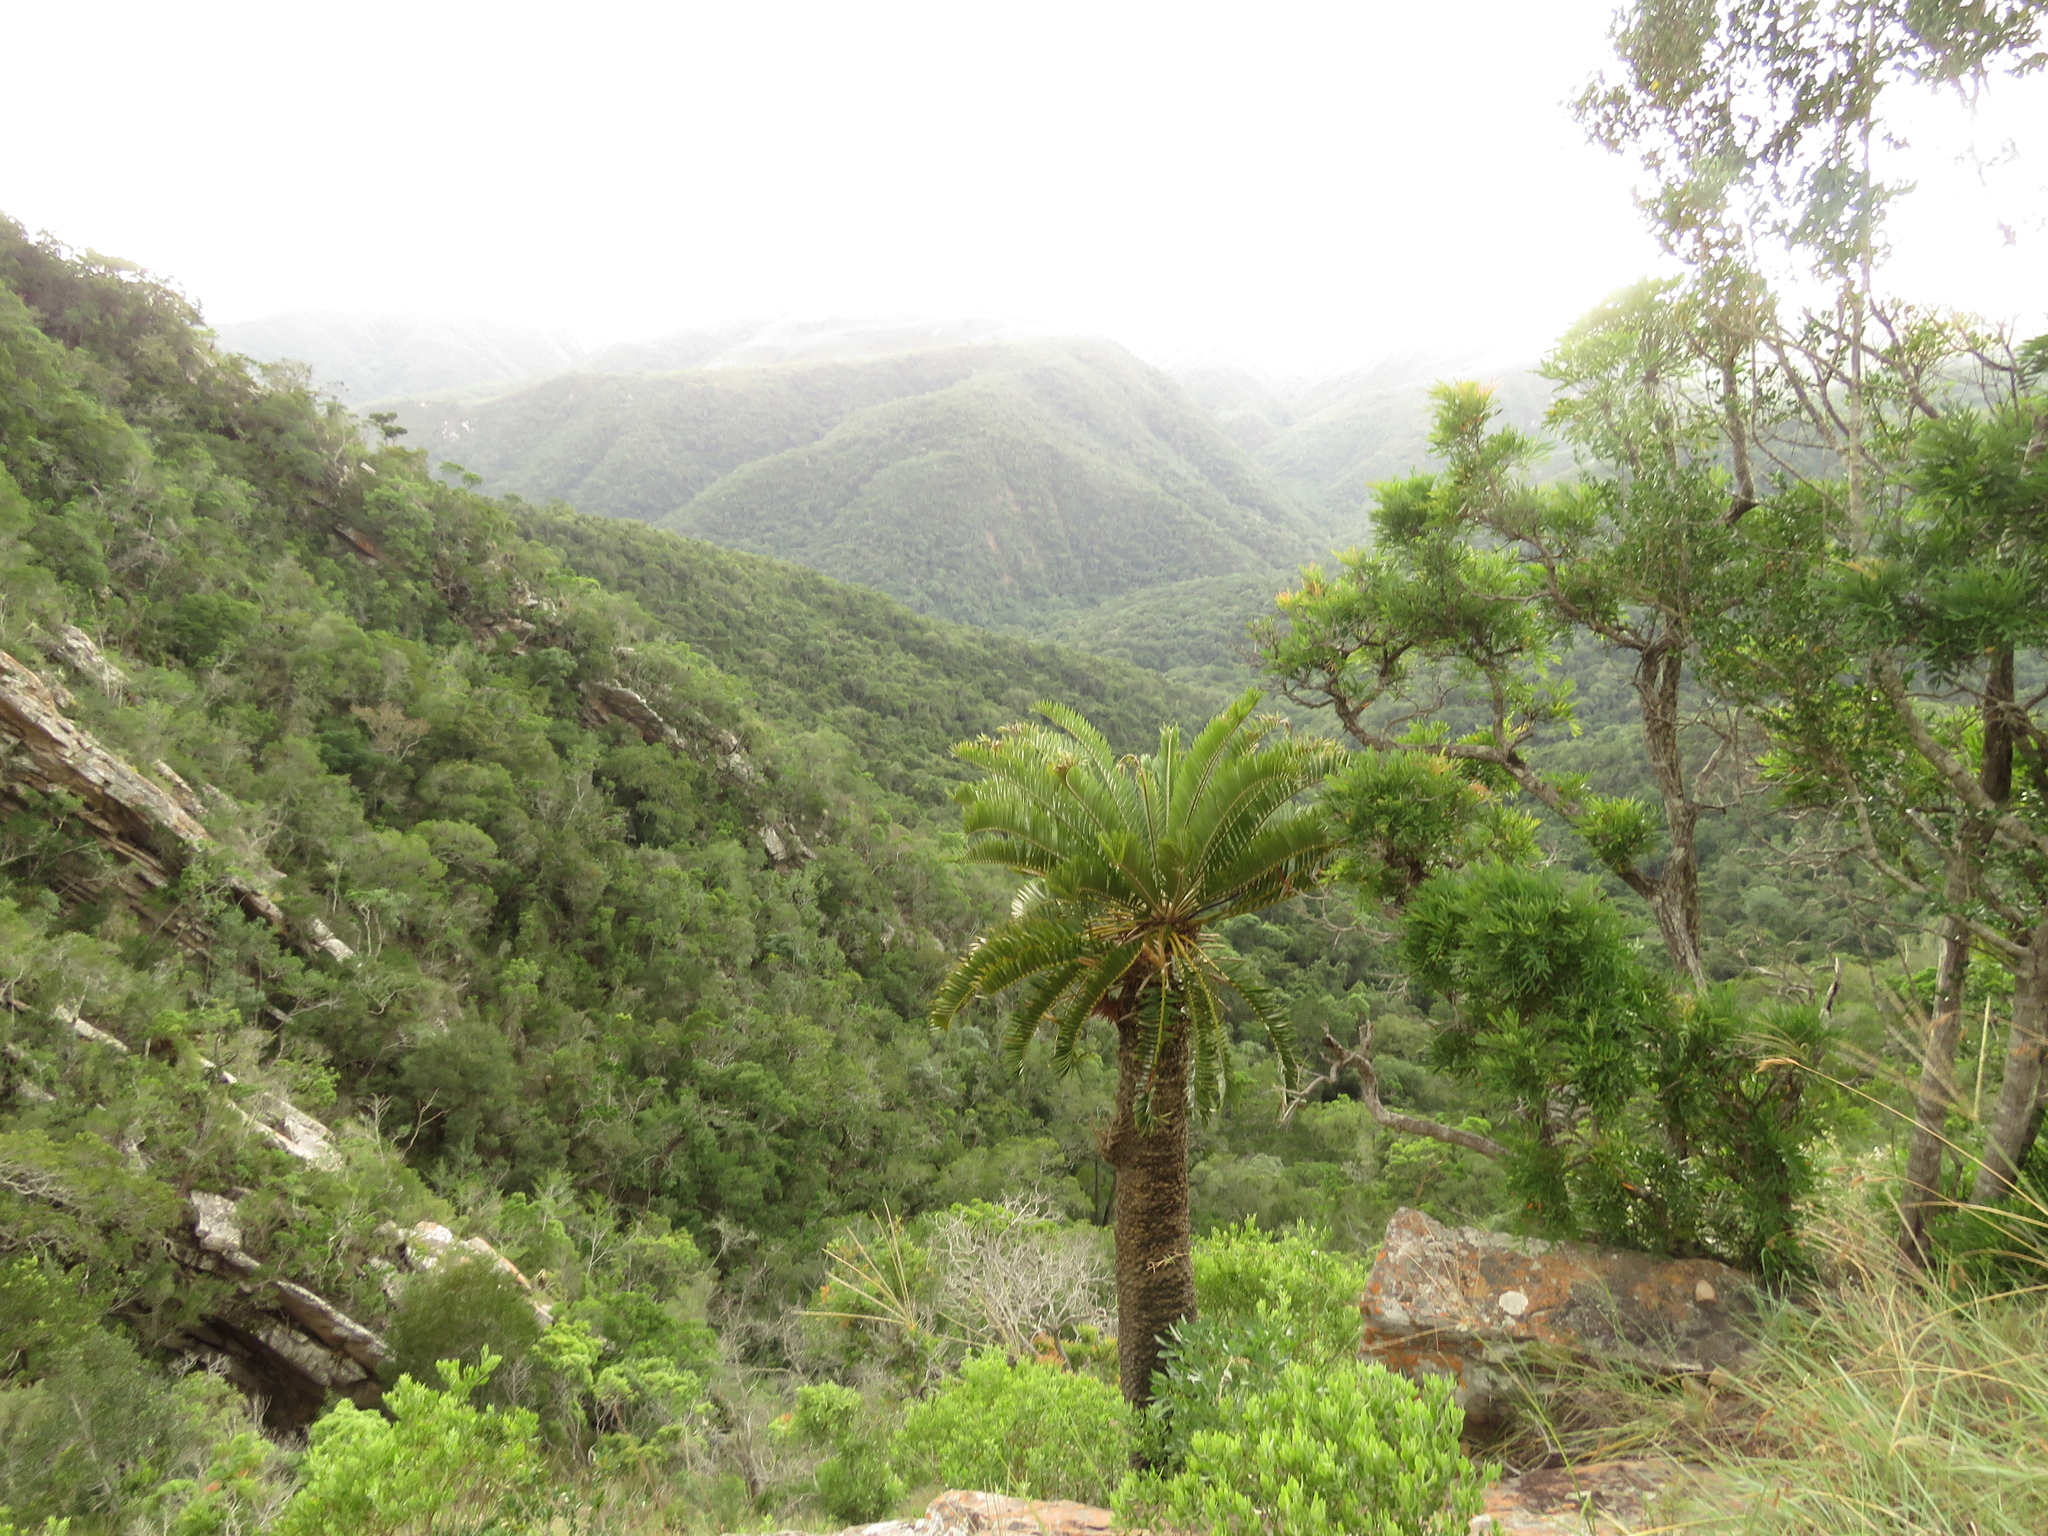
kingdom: Plantae
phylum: Tracheophyta
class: Cycadopsida
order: Cycadales
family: Zamiaceae
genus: Encephalartos
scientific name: Encephalartos longifolius
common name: Suurberg cycad
